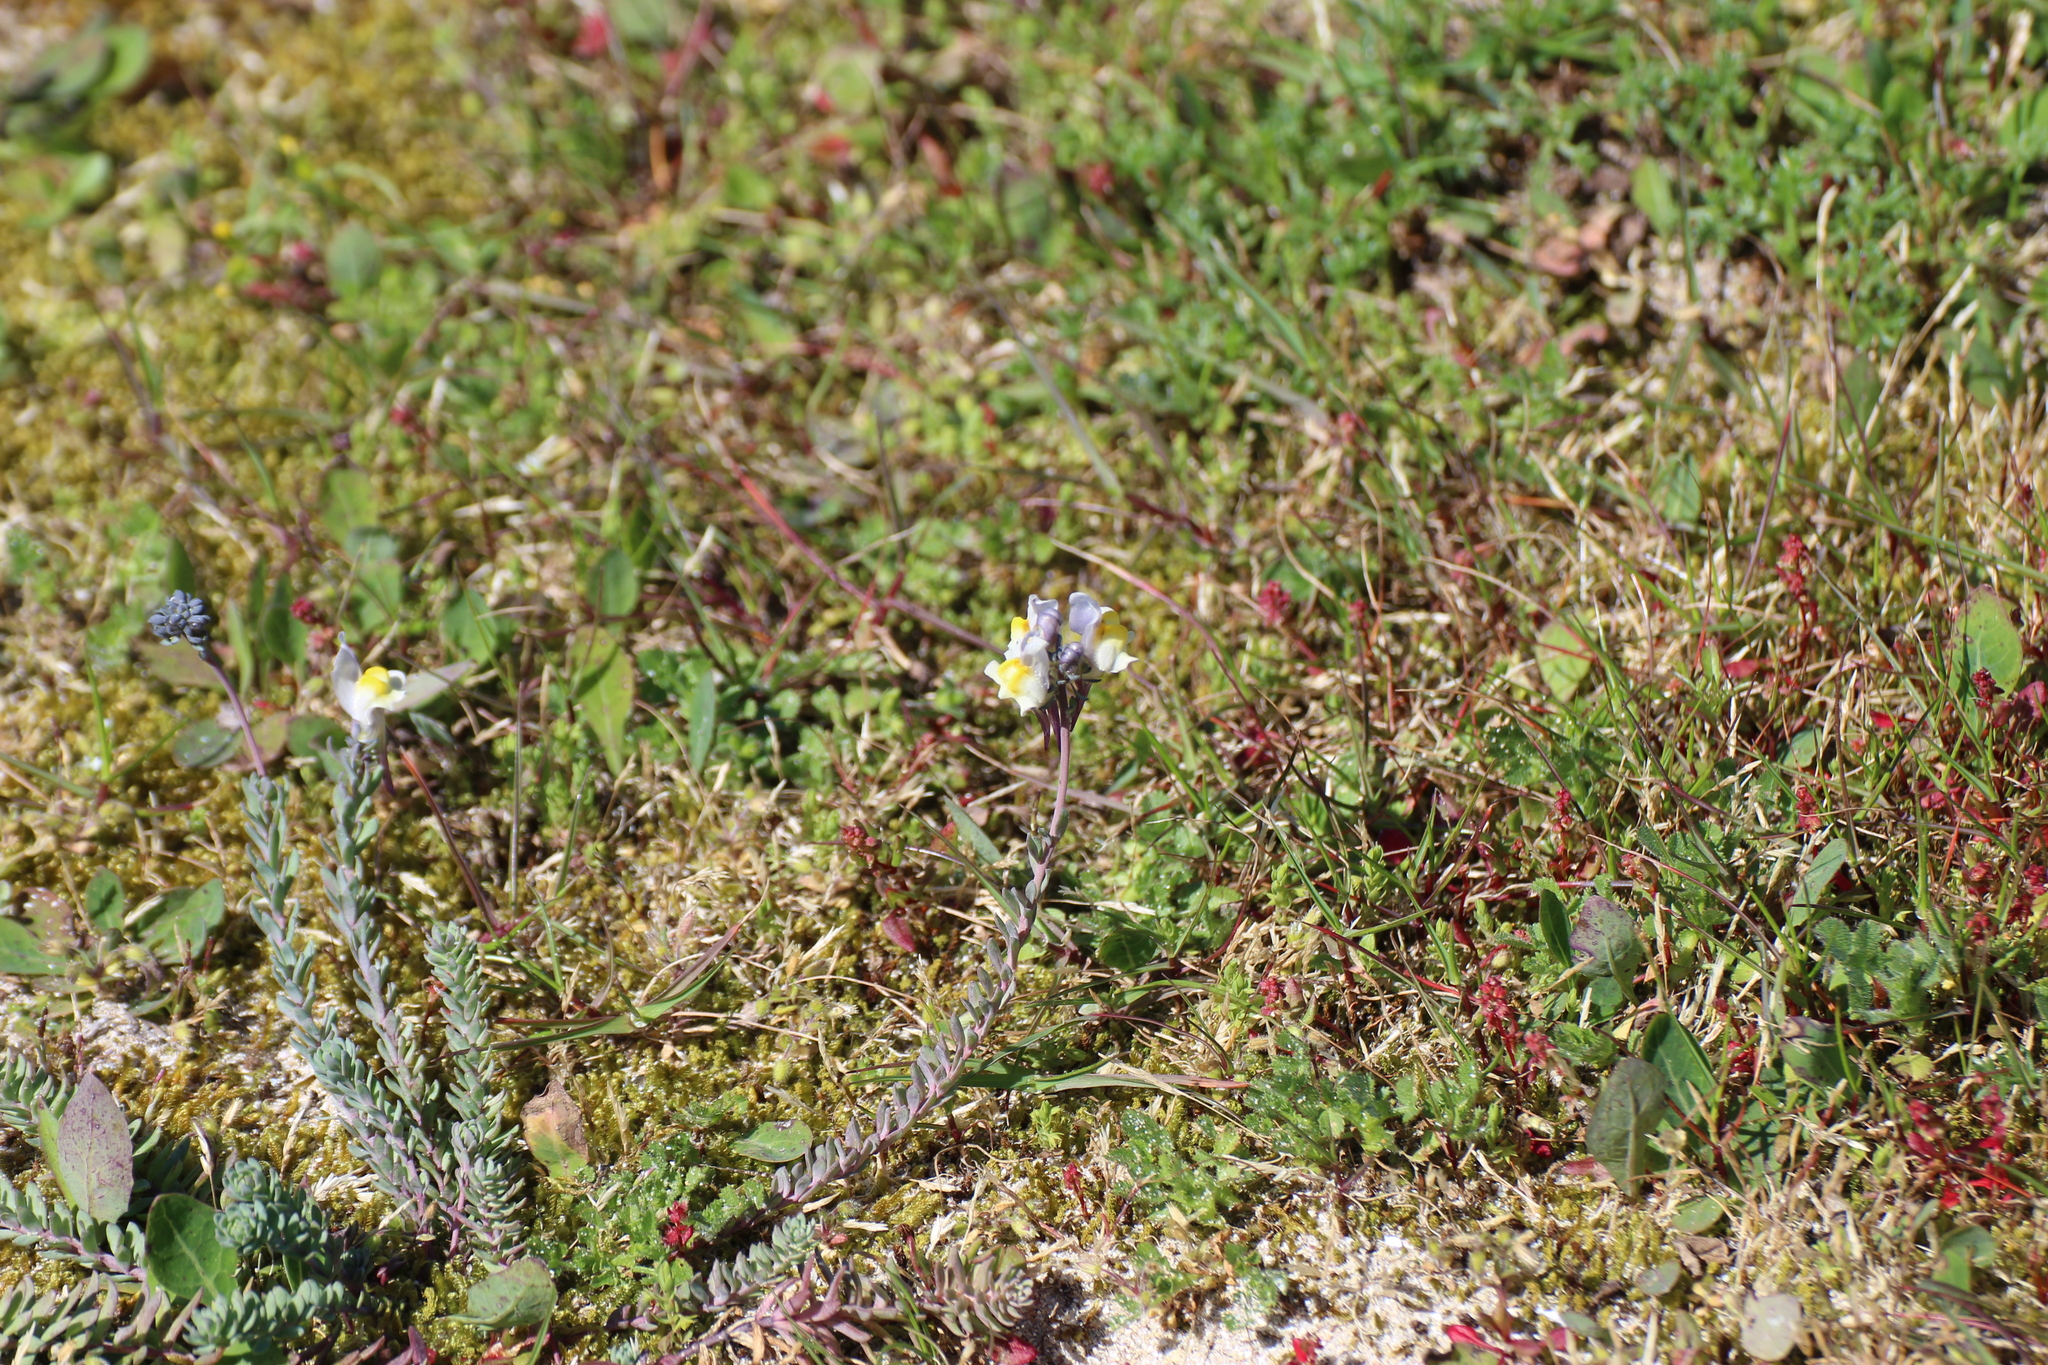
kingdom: Plantae
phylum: Tracheophyta
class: Magnoliopsida
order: Lamiales
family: Plantaginaceae
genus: Linaria
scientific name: Linaria polygalifolia
